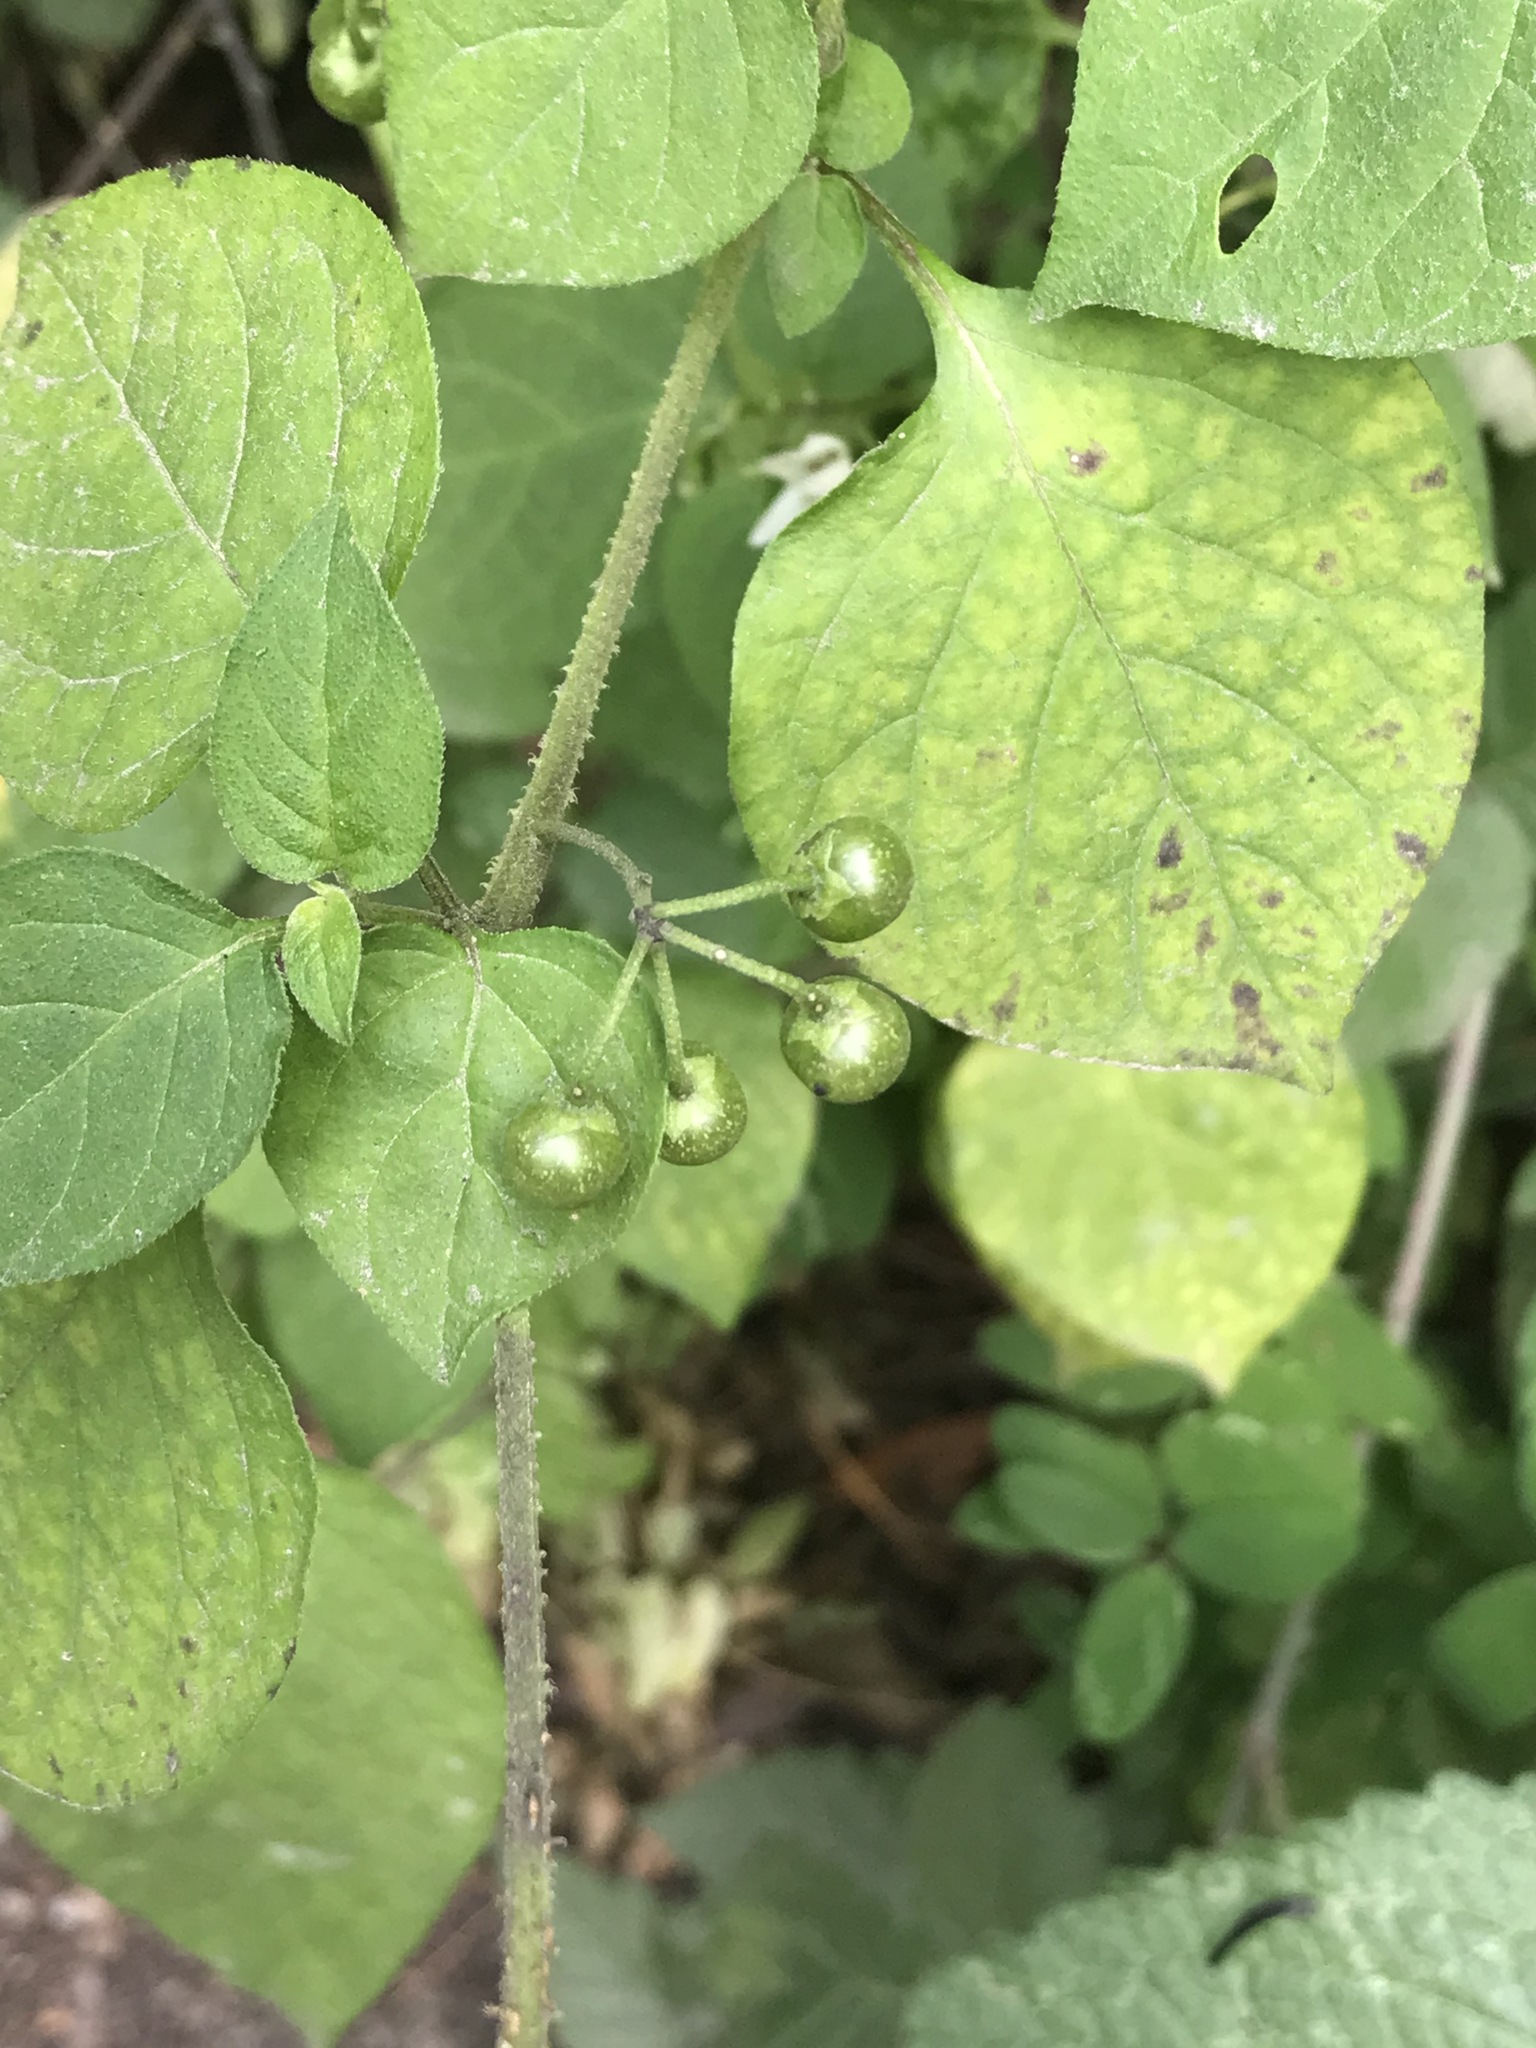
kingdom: Plantae
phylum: Tracheophyta
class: Magnoliopsida
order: Solanales
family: Solanaceae
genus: Solanum
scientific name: Solanum douglasii
